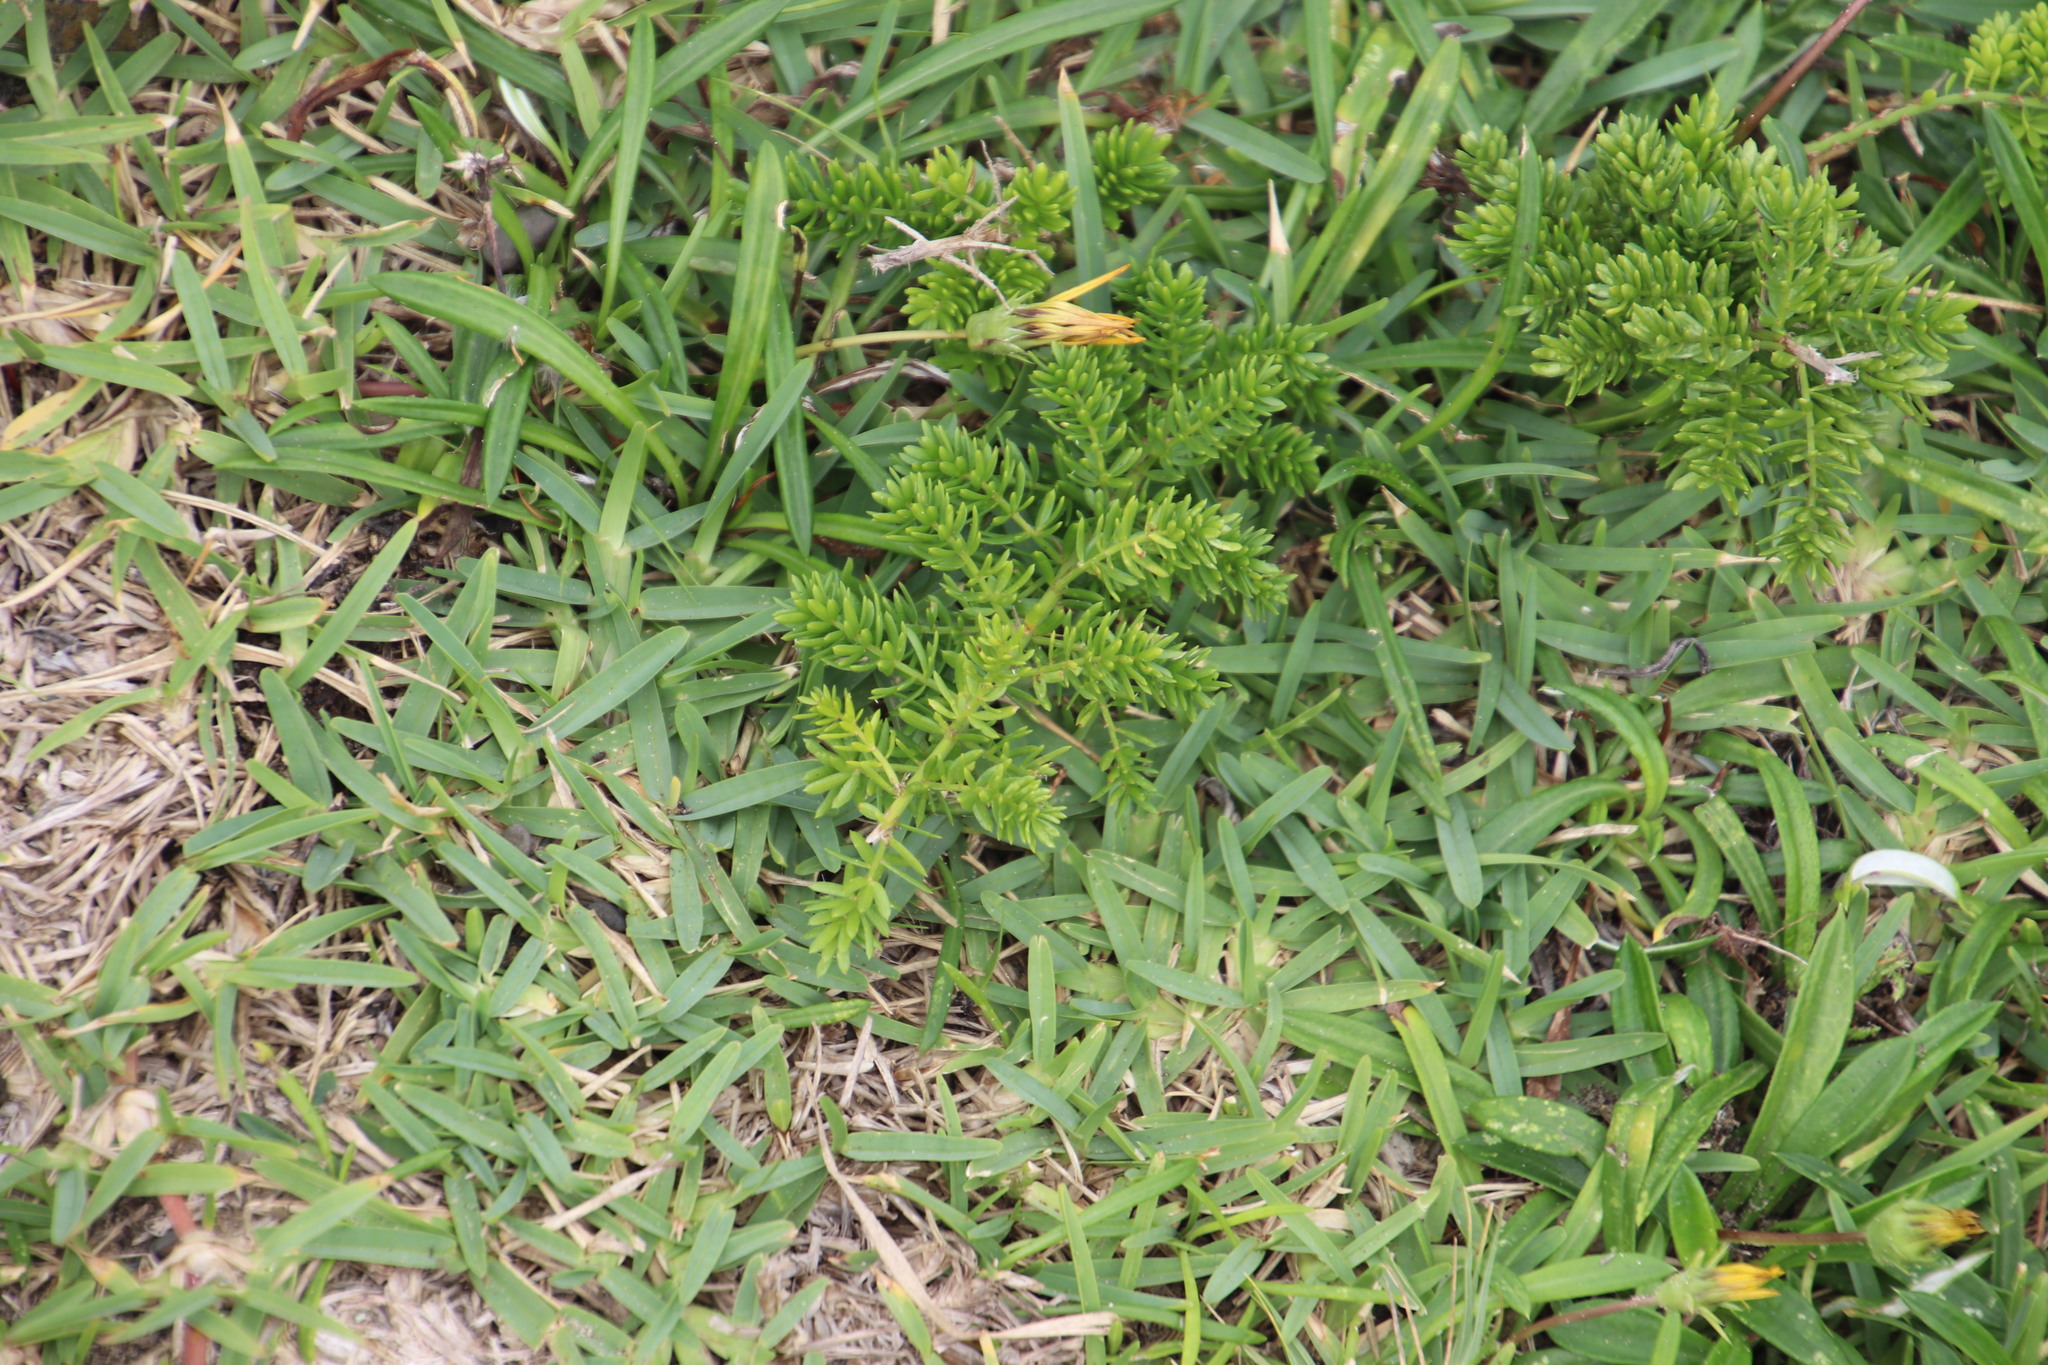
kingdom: Plantae
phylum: Tracheophyta
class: Liliopsida
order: Asparagales
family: Asparagaceae
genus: Asparagus
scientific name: Asparagus densiflorus
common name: Asparagus fern
